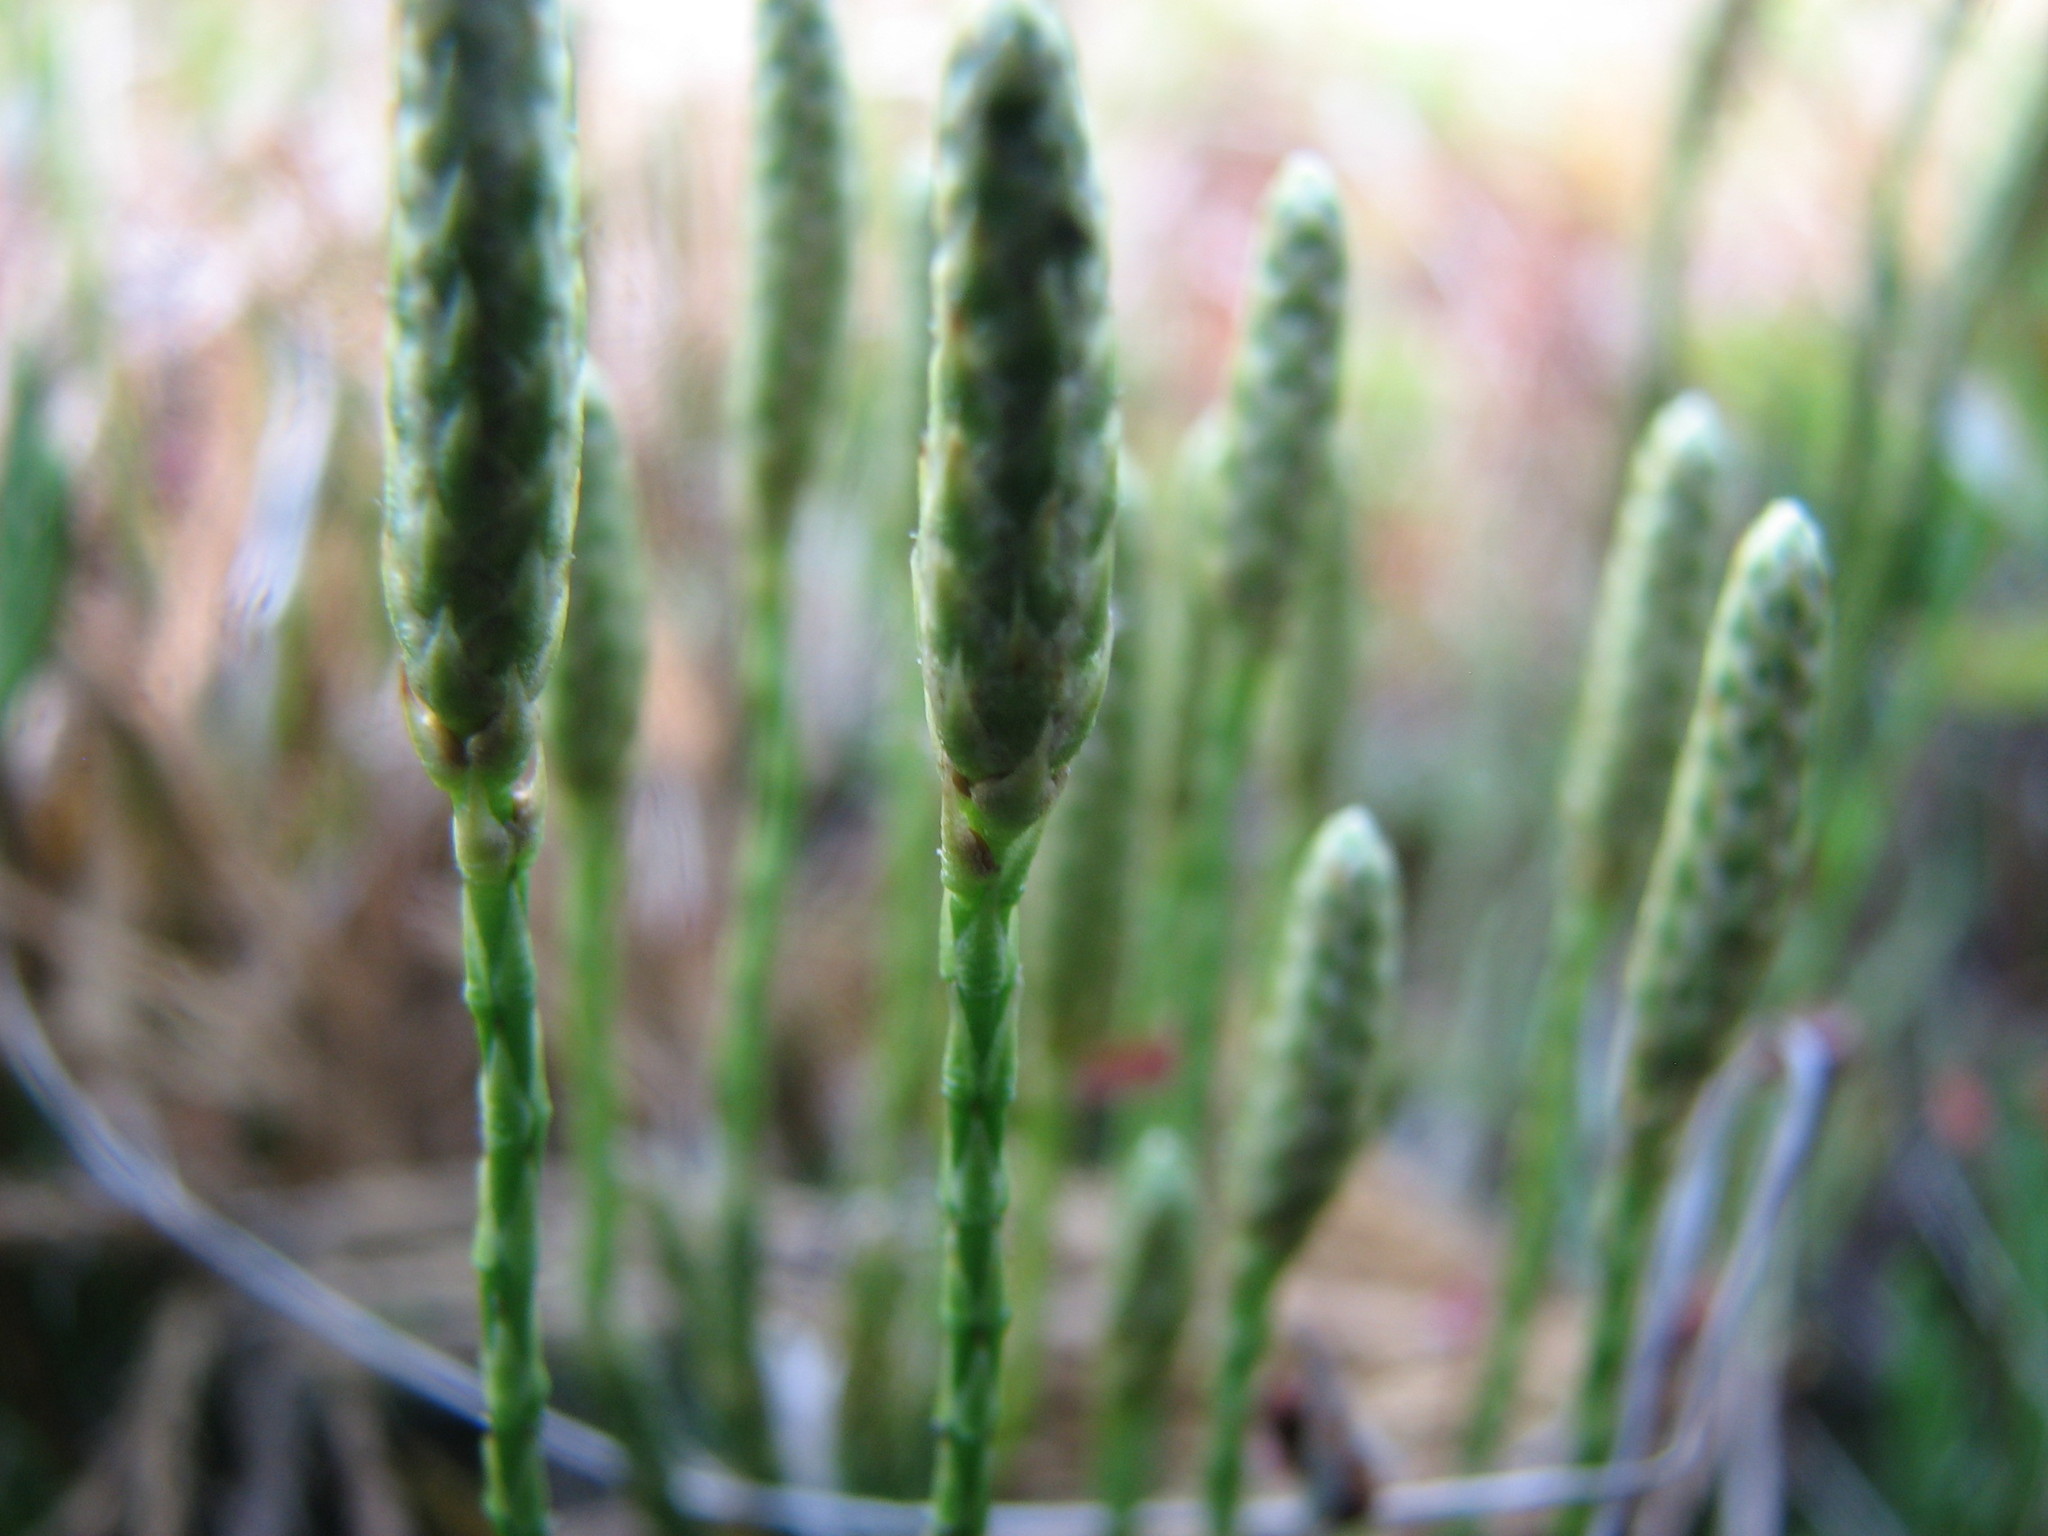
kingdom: Plantae
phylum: Tracheophyta
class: Lycopodiopsida
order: Lycopodiales
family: Lycopodiaceae
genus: Diphasiastrum
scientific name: Diphasiastrum sabinifolium
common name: Juniper clubmoss
